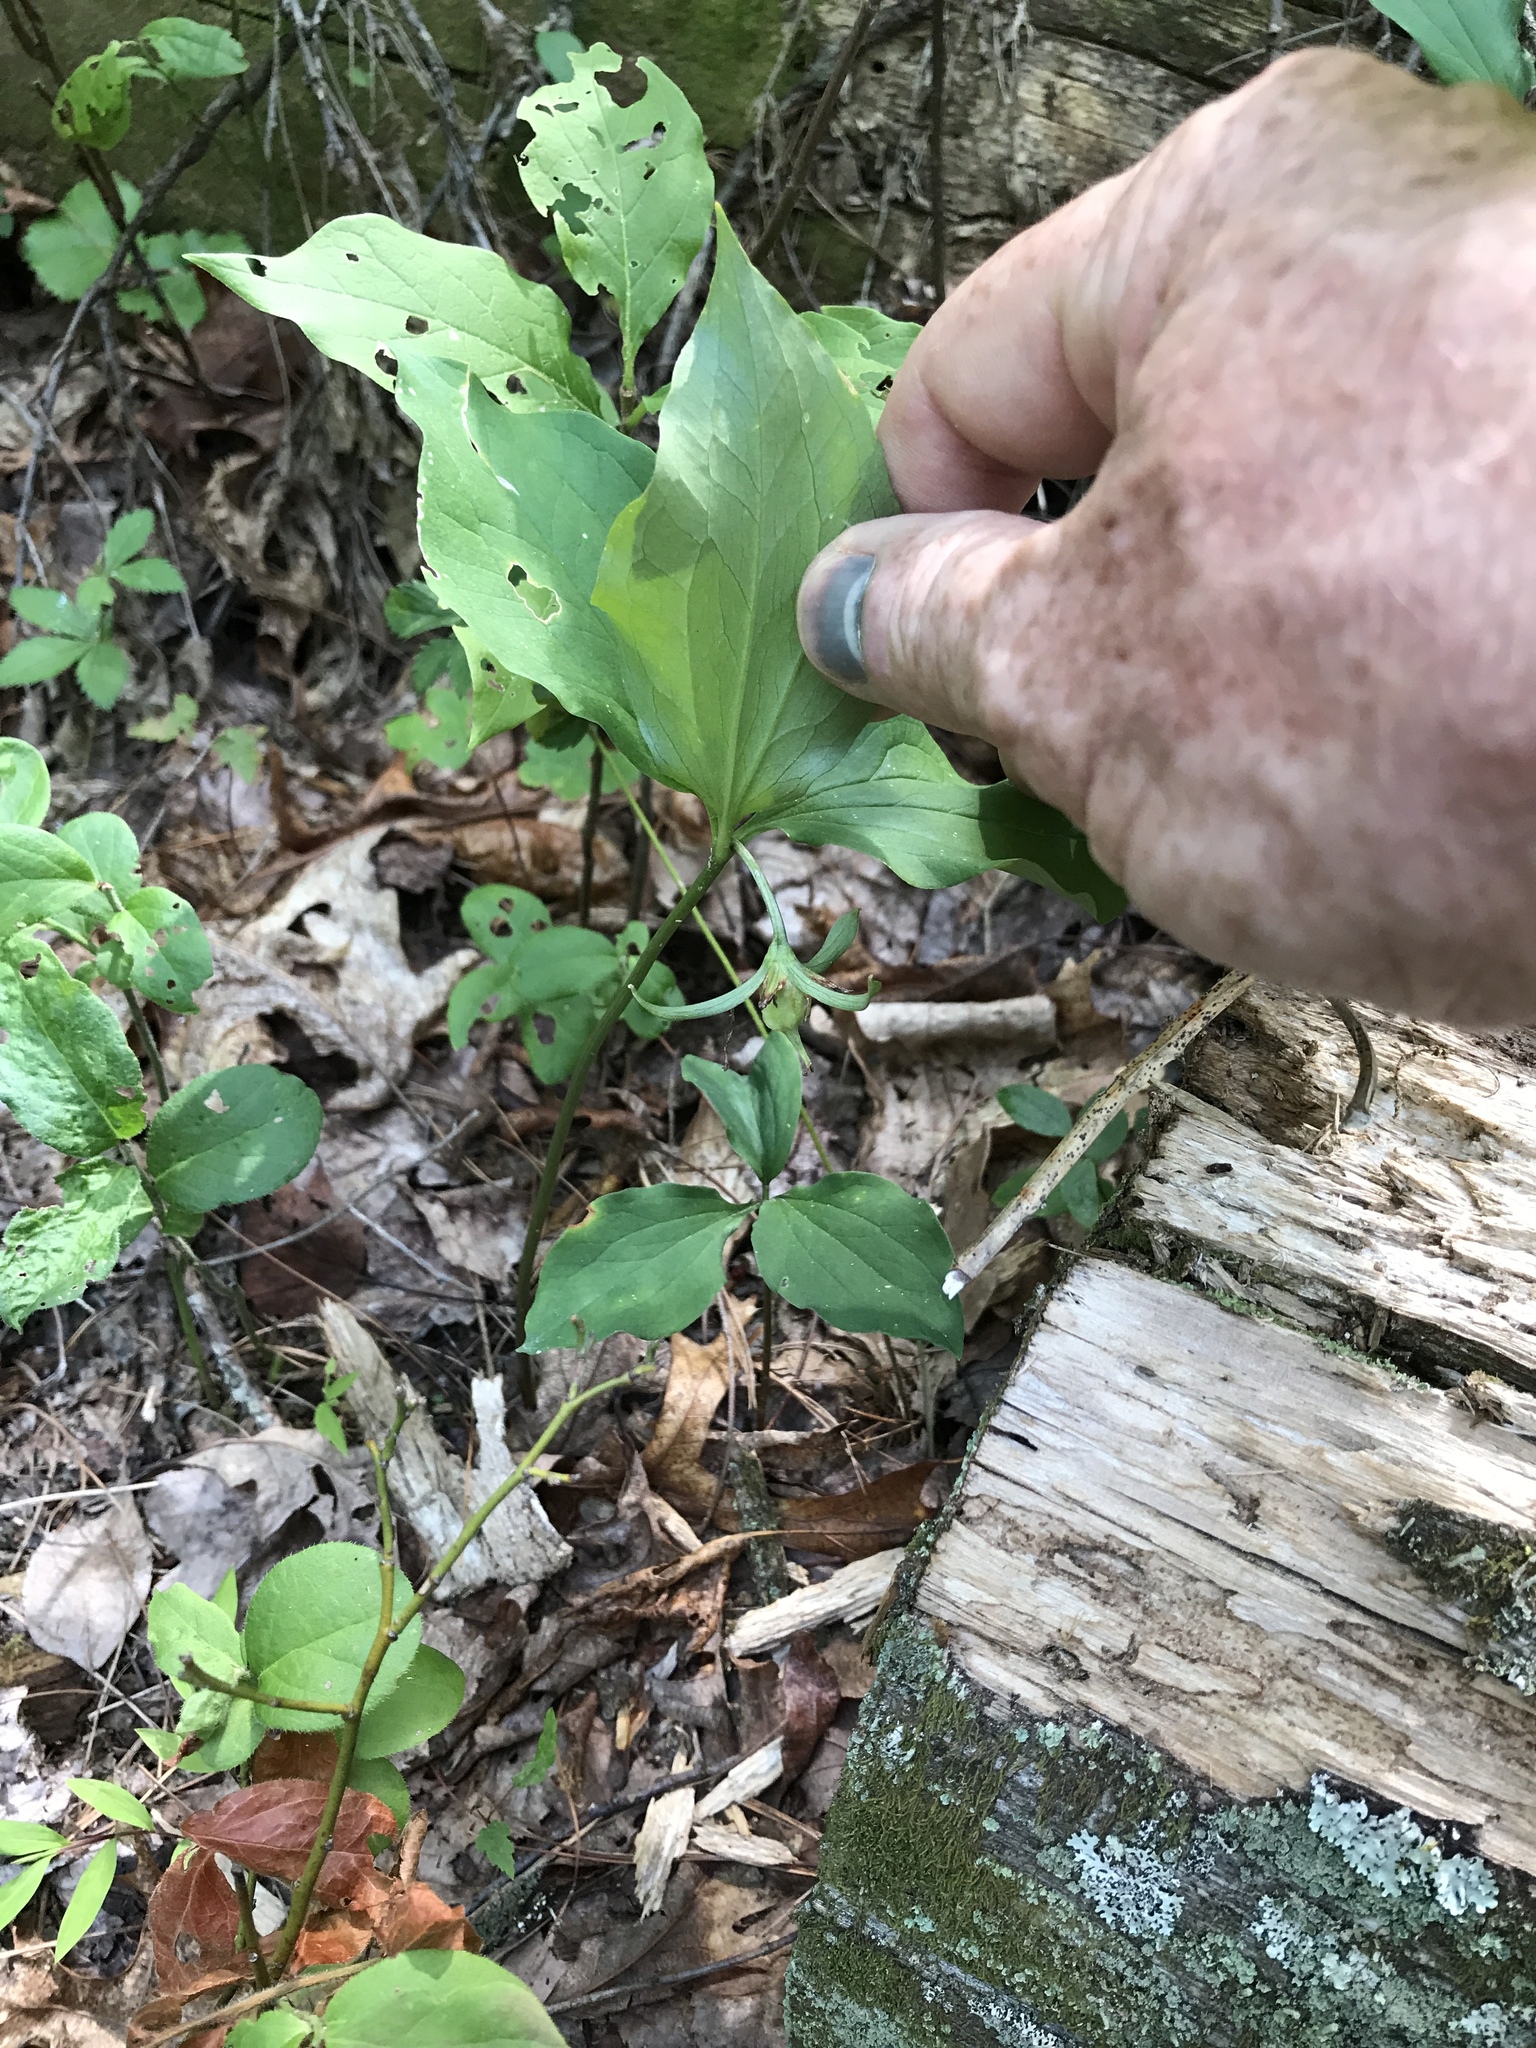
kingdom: Plantae
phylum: Tracheophyta
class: Liliopsida
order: Liliales
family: Melanthiaceae
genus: Trillium
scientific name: Trillium catesbaei
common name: Bashful trillium
